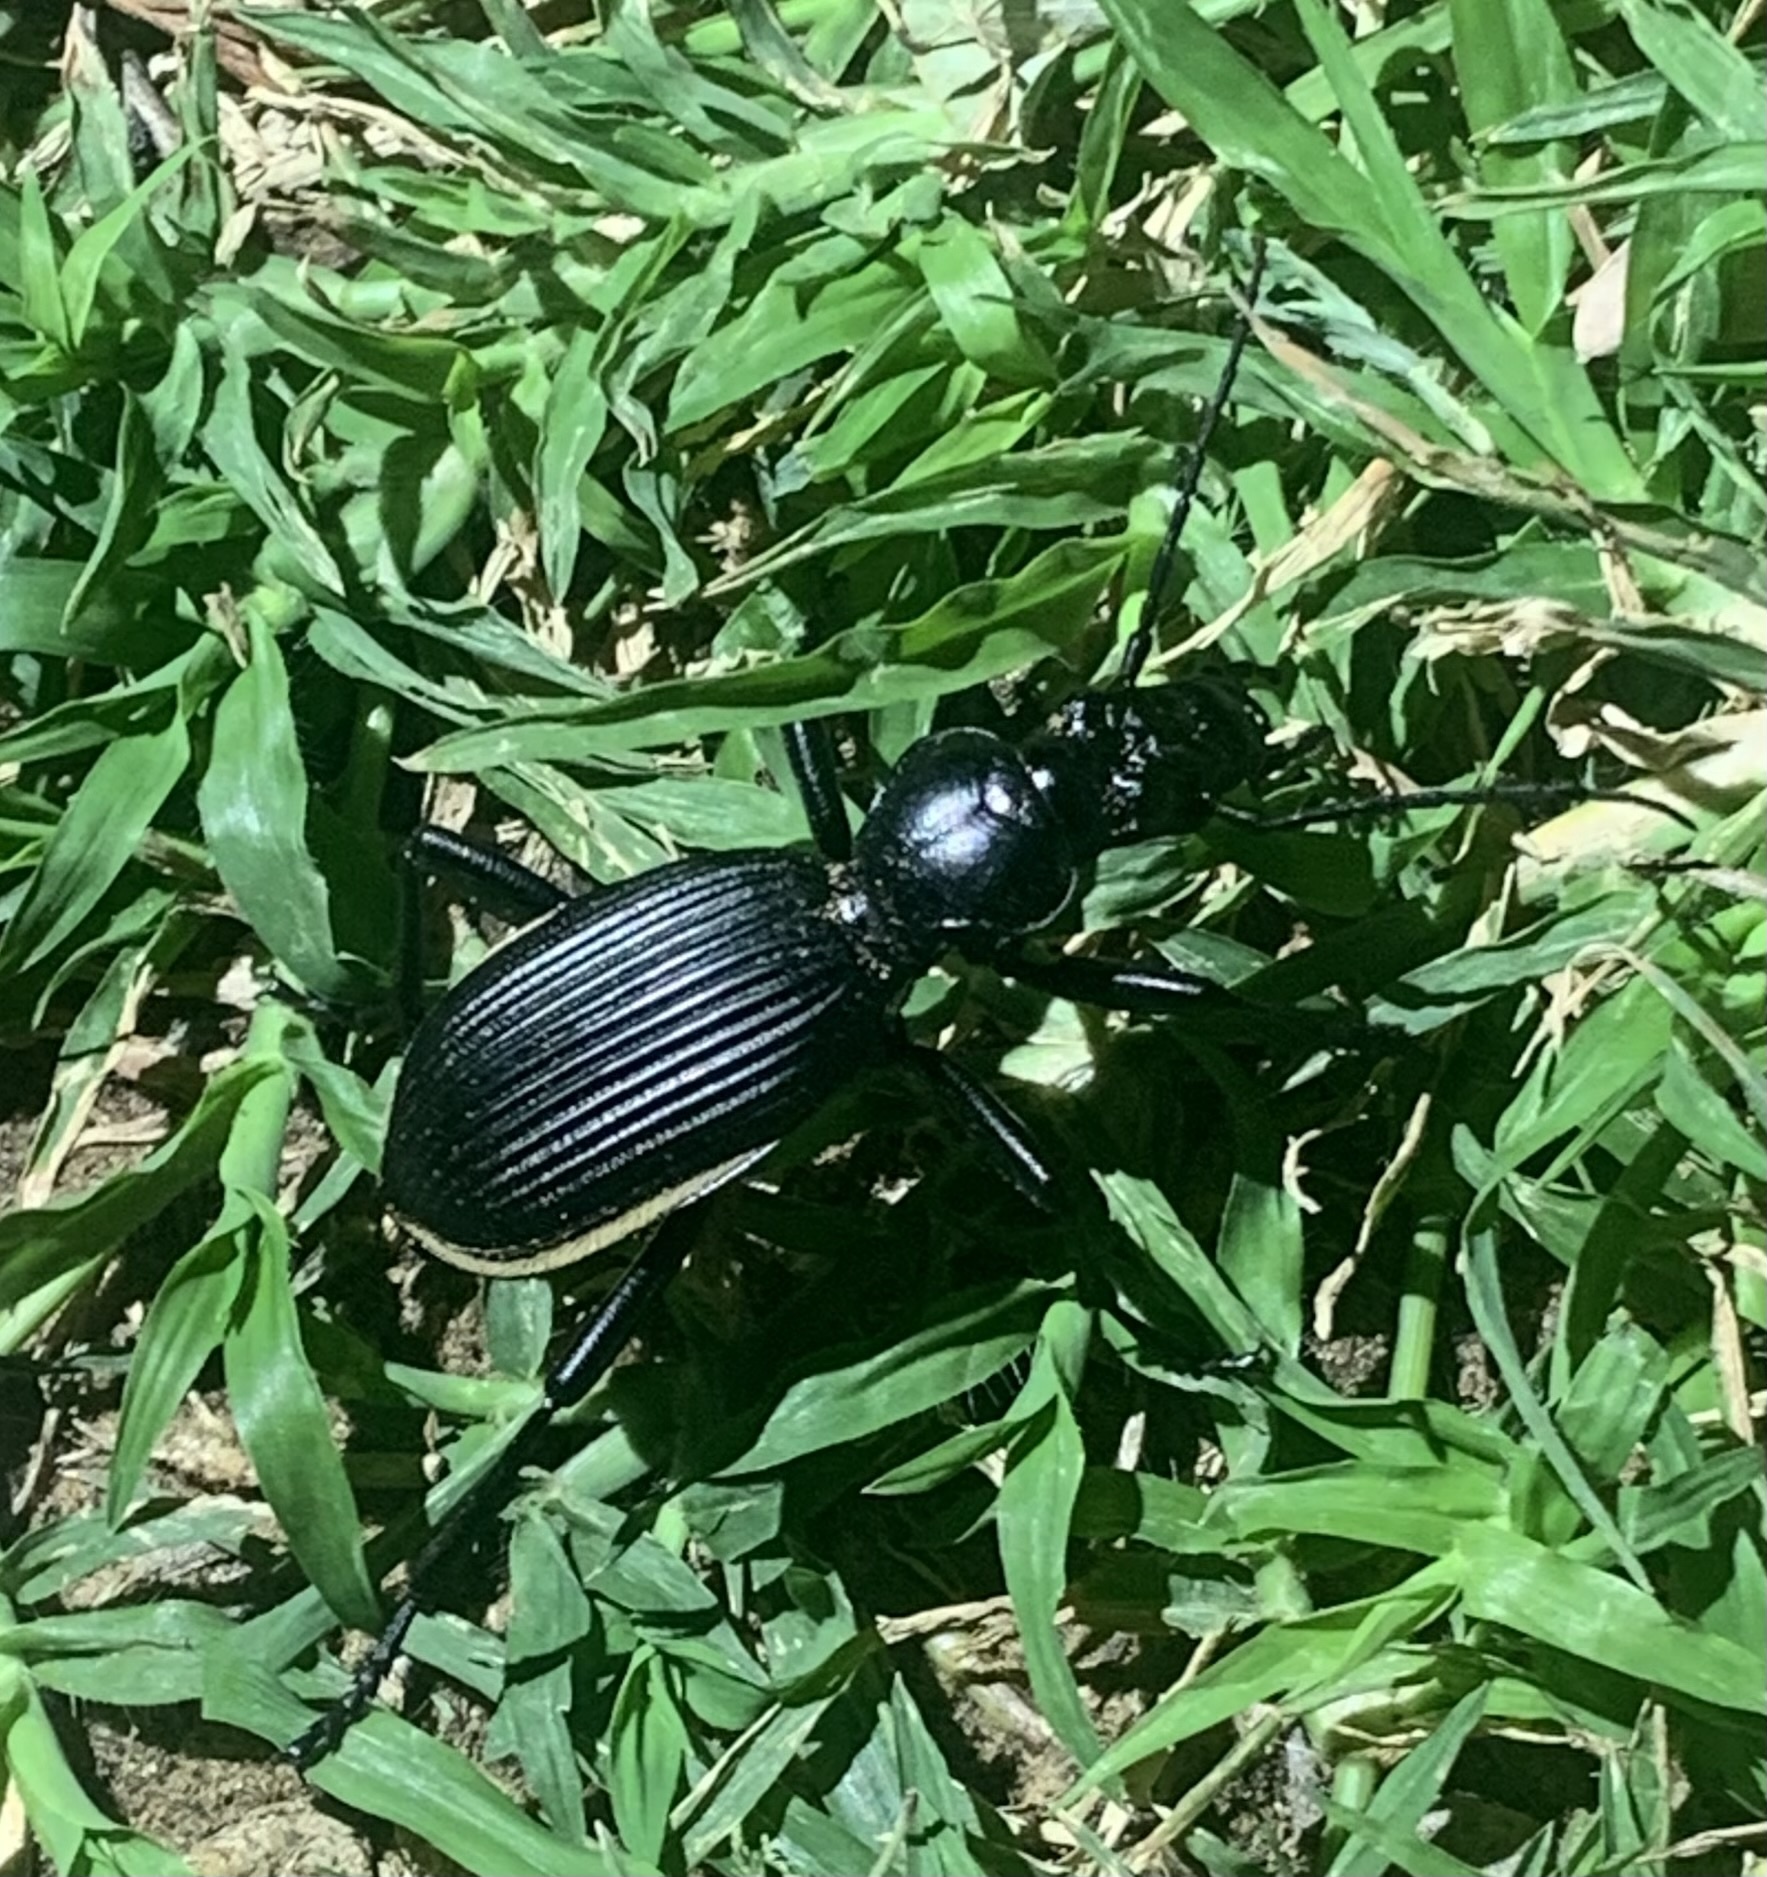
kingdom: Animalia
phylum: Arthropoda
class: Insecta
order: Coleoptera
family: Carabidae
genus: Anthia
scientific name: Anthia massilicata
